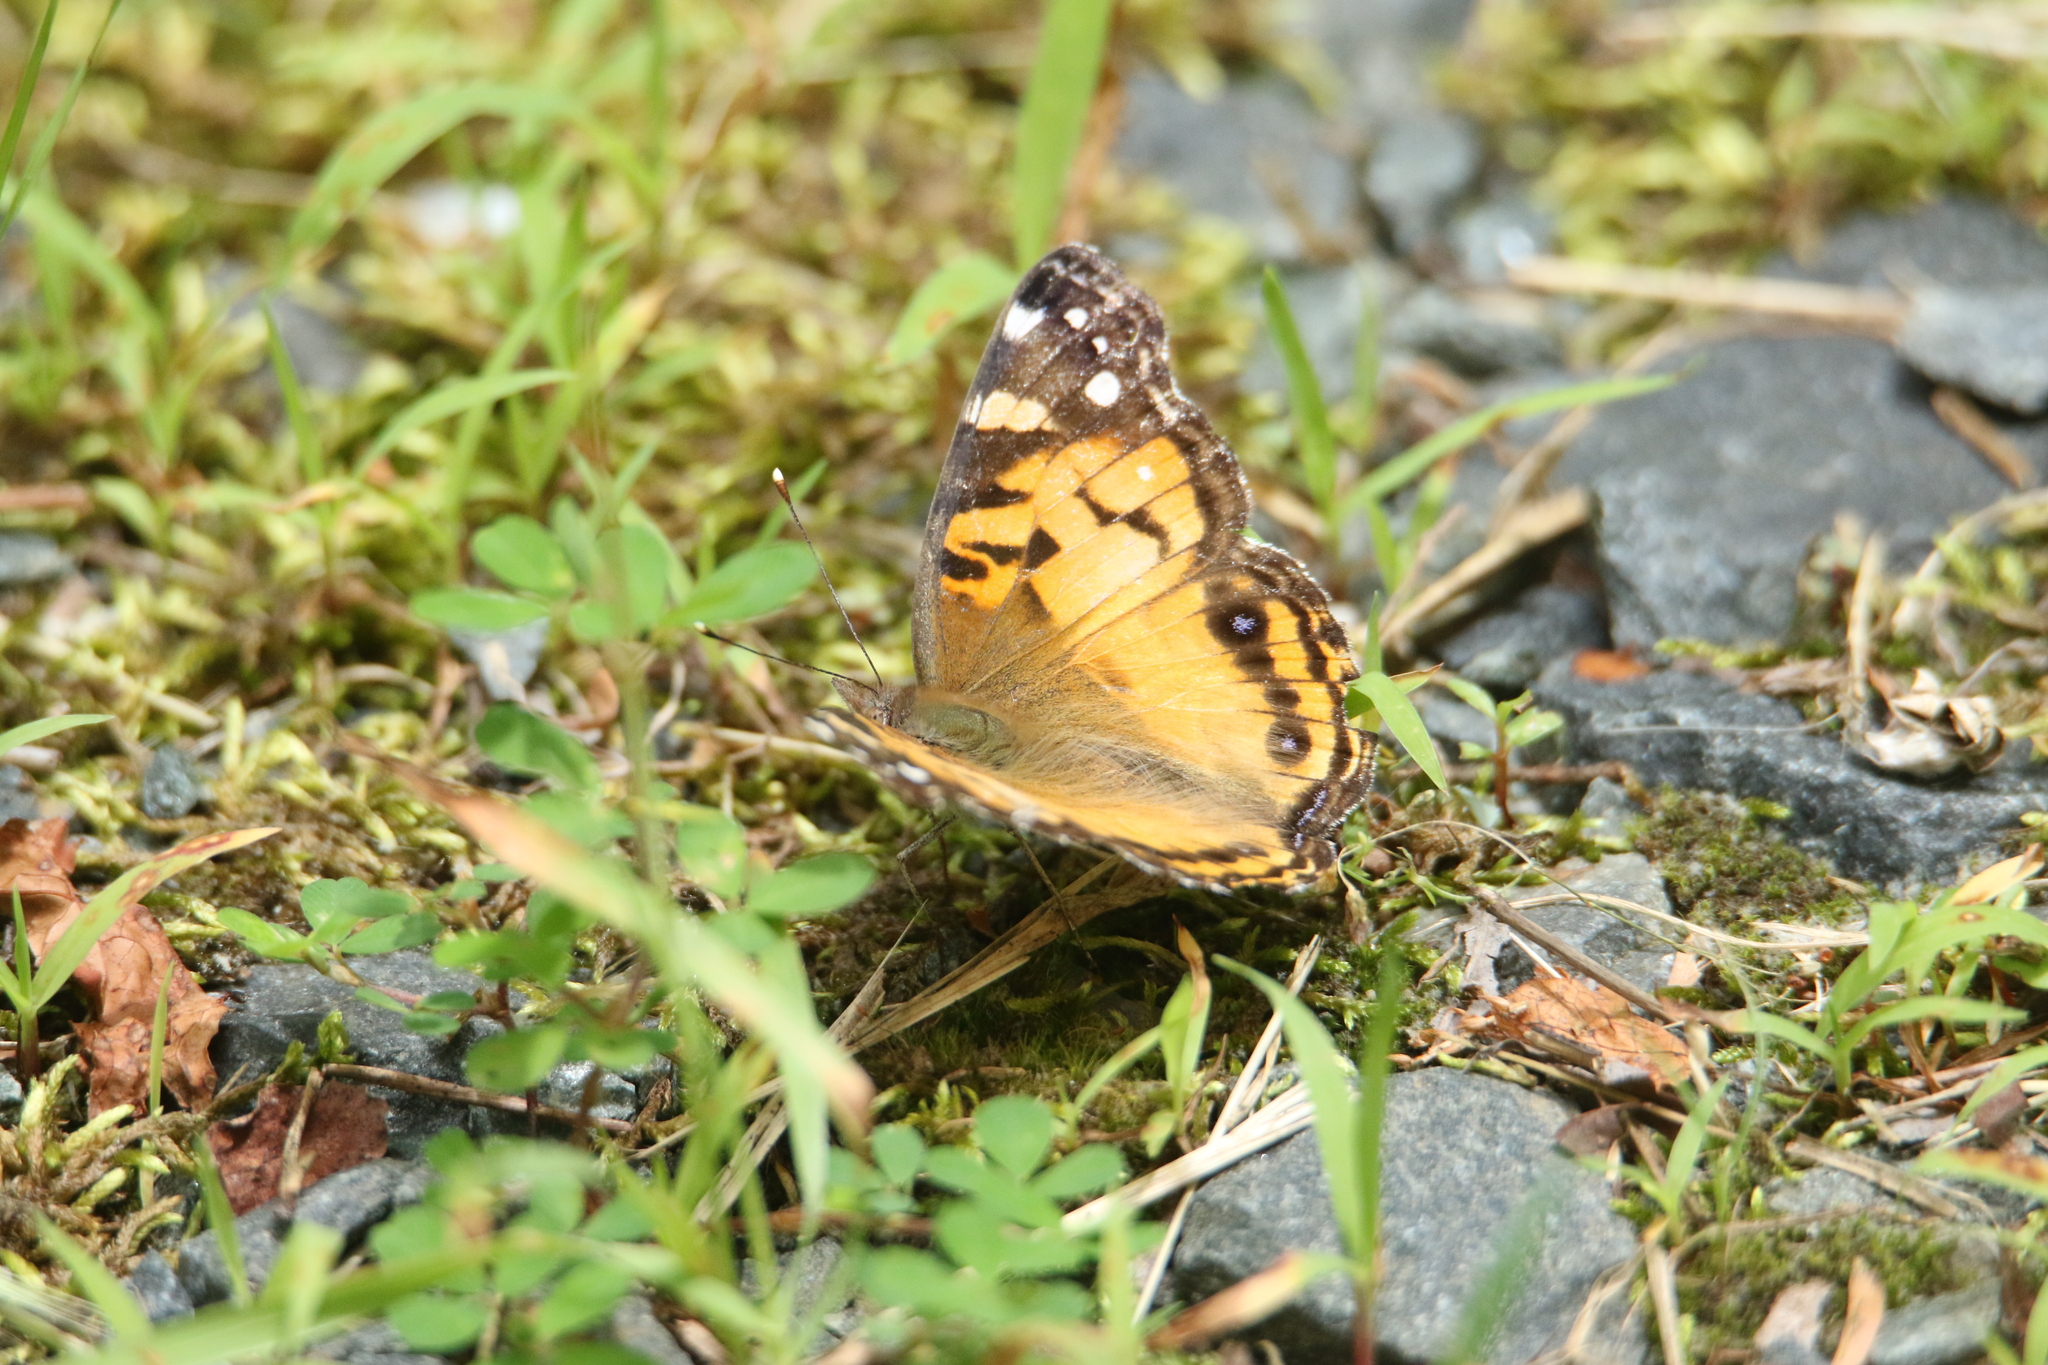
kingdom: Animalia
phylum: Arthropoda
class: Insecta
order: Lepidoptera
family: Nymphalidae
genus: Vanessa
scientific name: Vanessa virginiensis
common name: American lady
